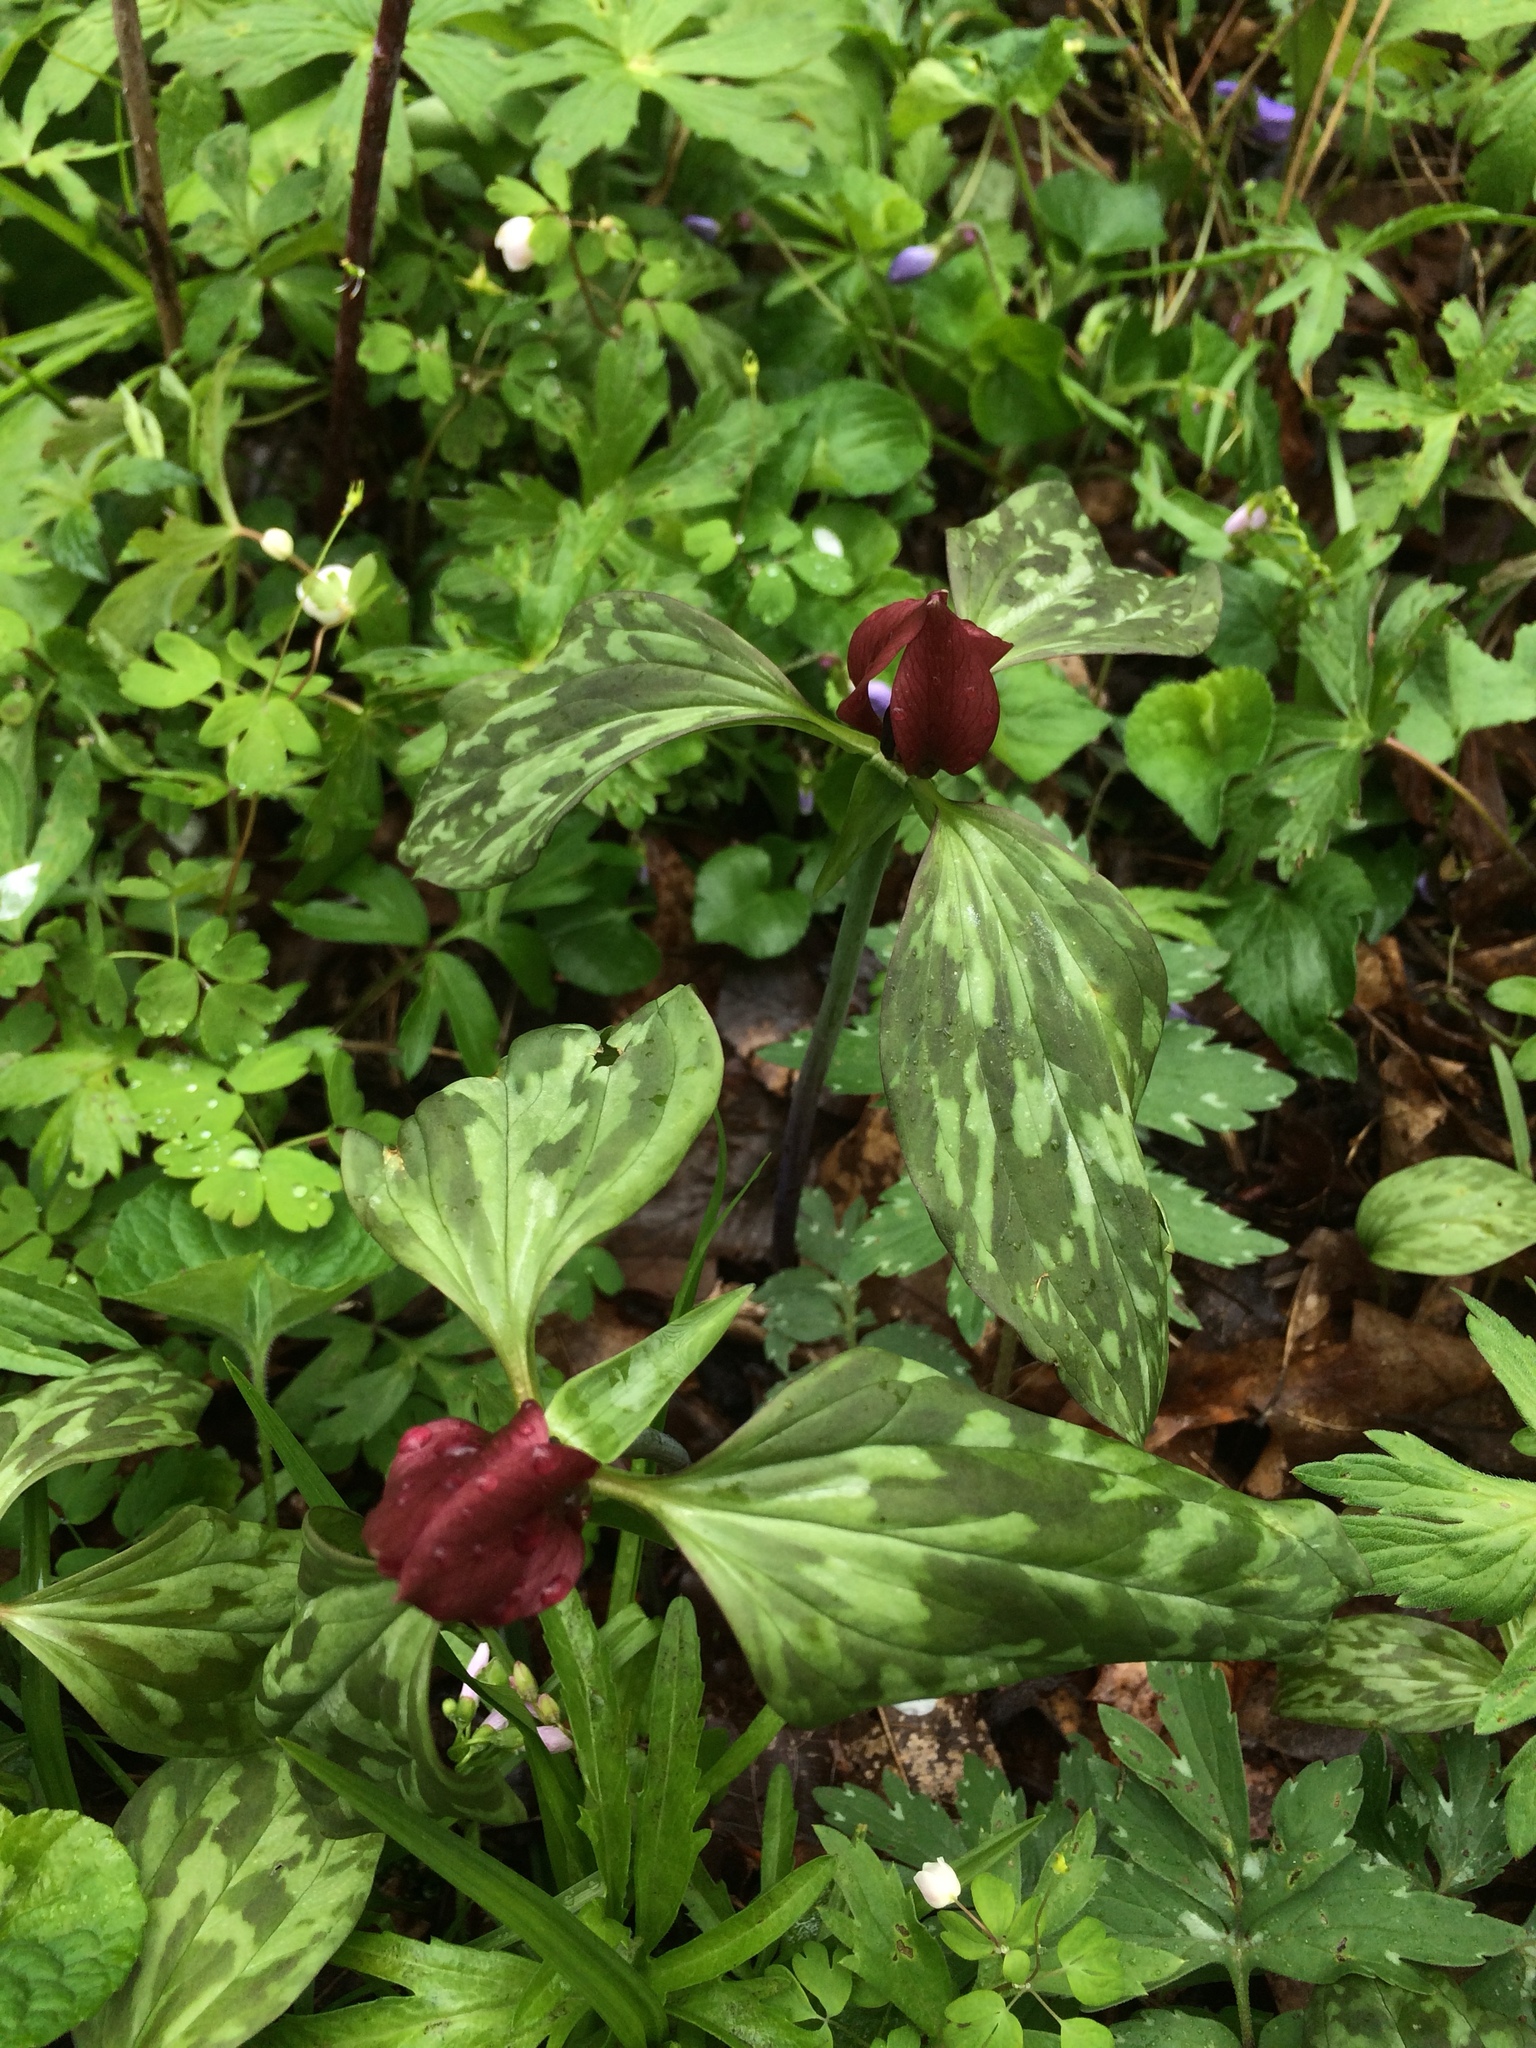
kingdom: Plantae
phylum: Tracheophyta
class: Liliopsida
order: Liliales
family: Melanthiaceae
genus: Trillium
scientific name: Trillium recurvatum
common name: Bloody butcher
